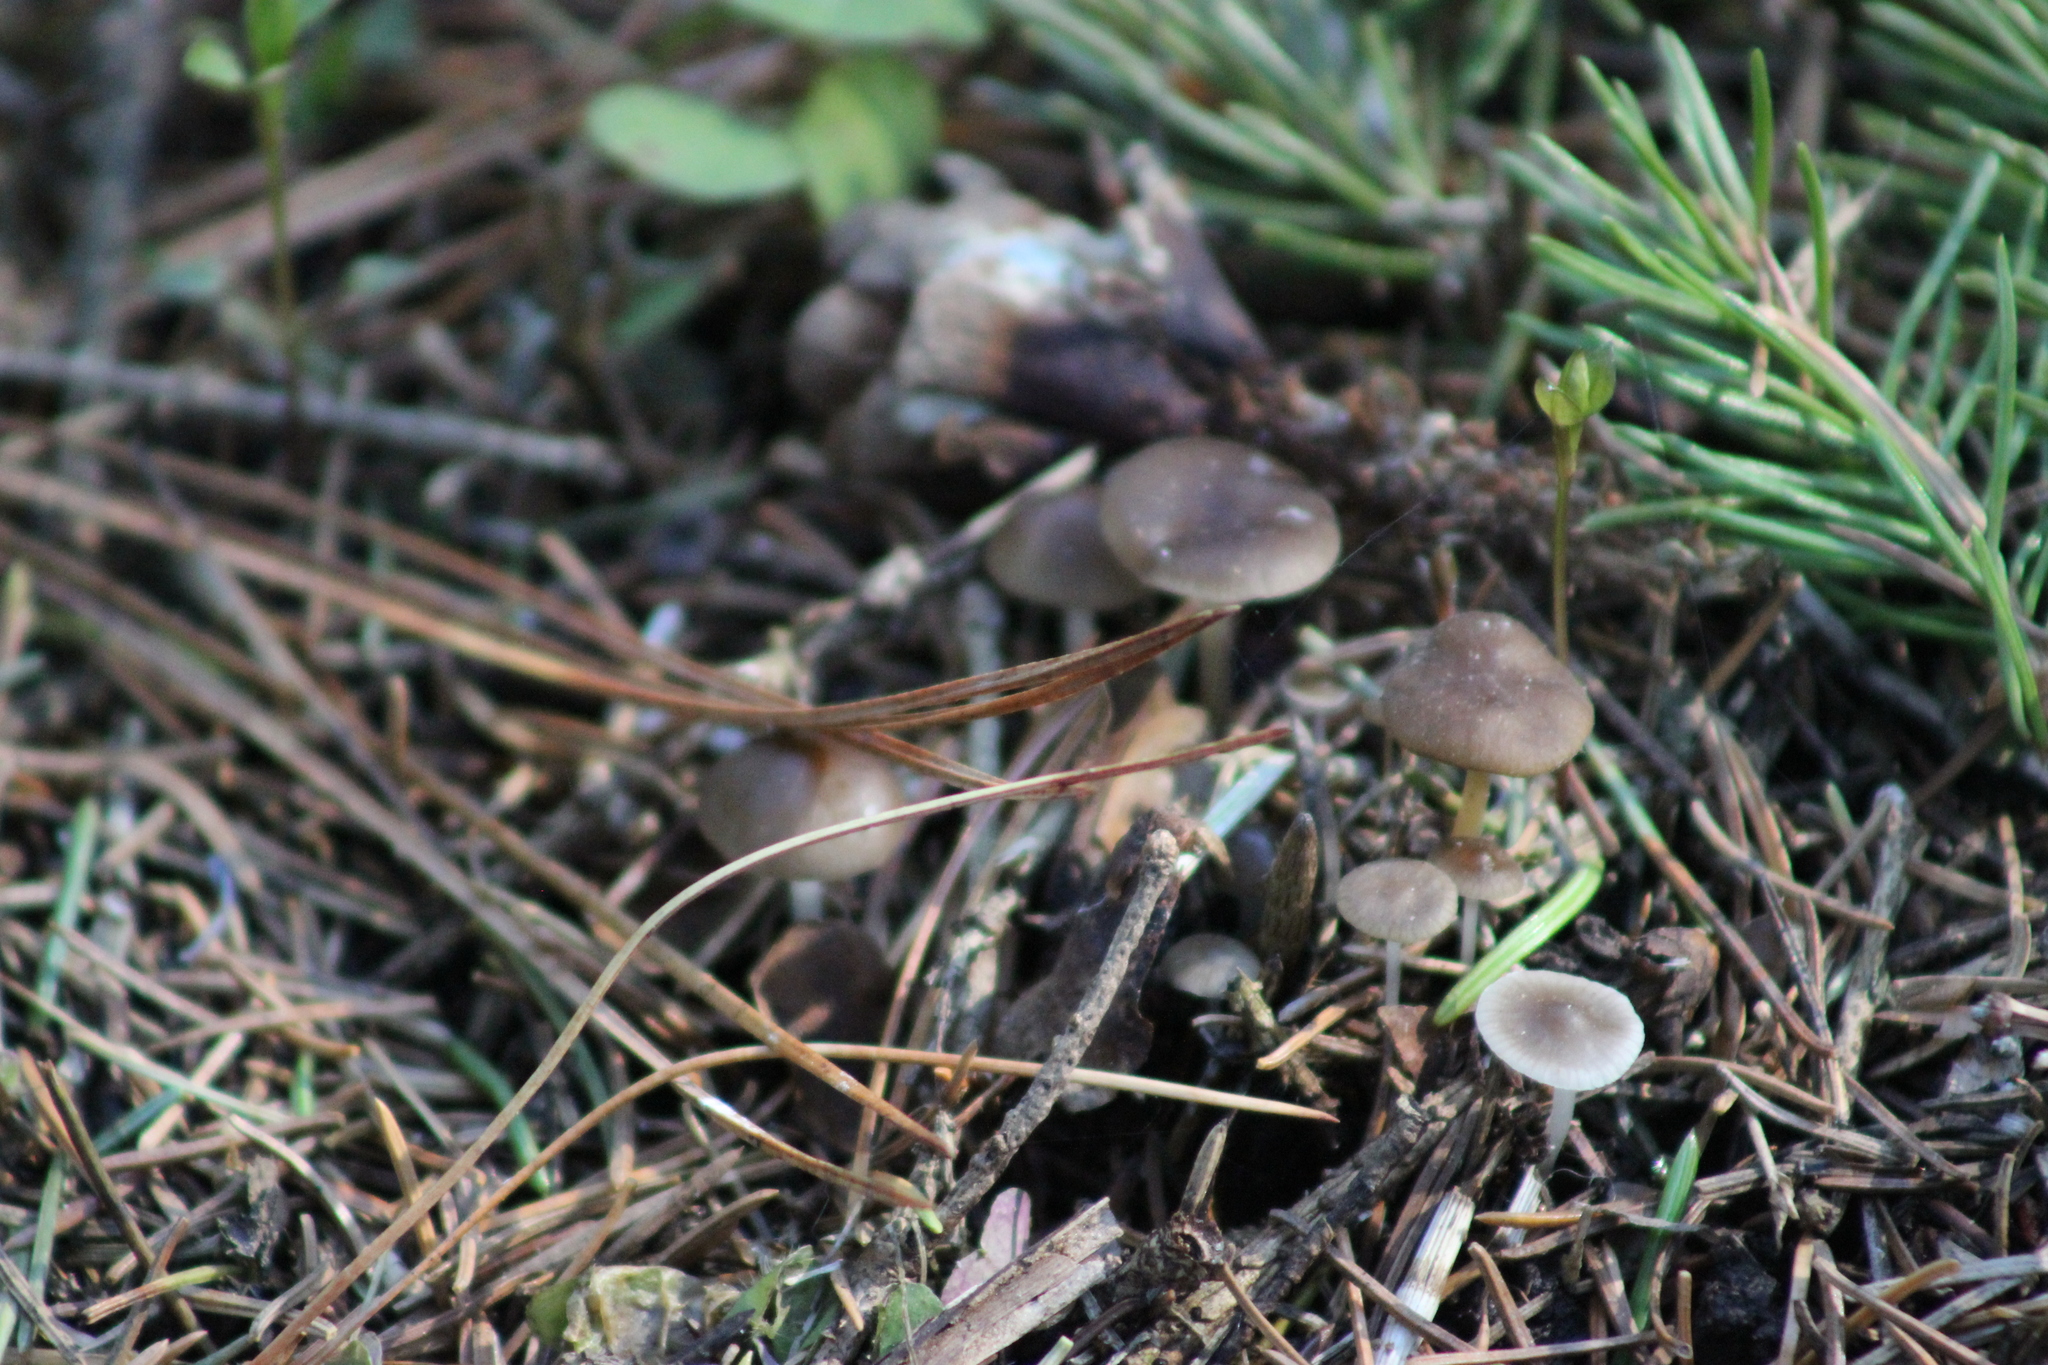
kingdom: Fungi
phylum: Basidiomycota
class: Agaricomycetes
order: Agaricales
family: Physalacriaceae
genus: Strobilurus
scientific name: Strobilurus esculentus
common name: Sprucecone cap
